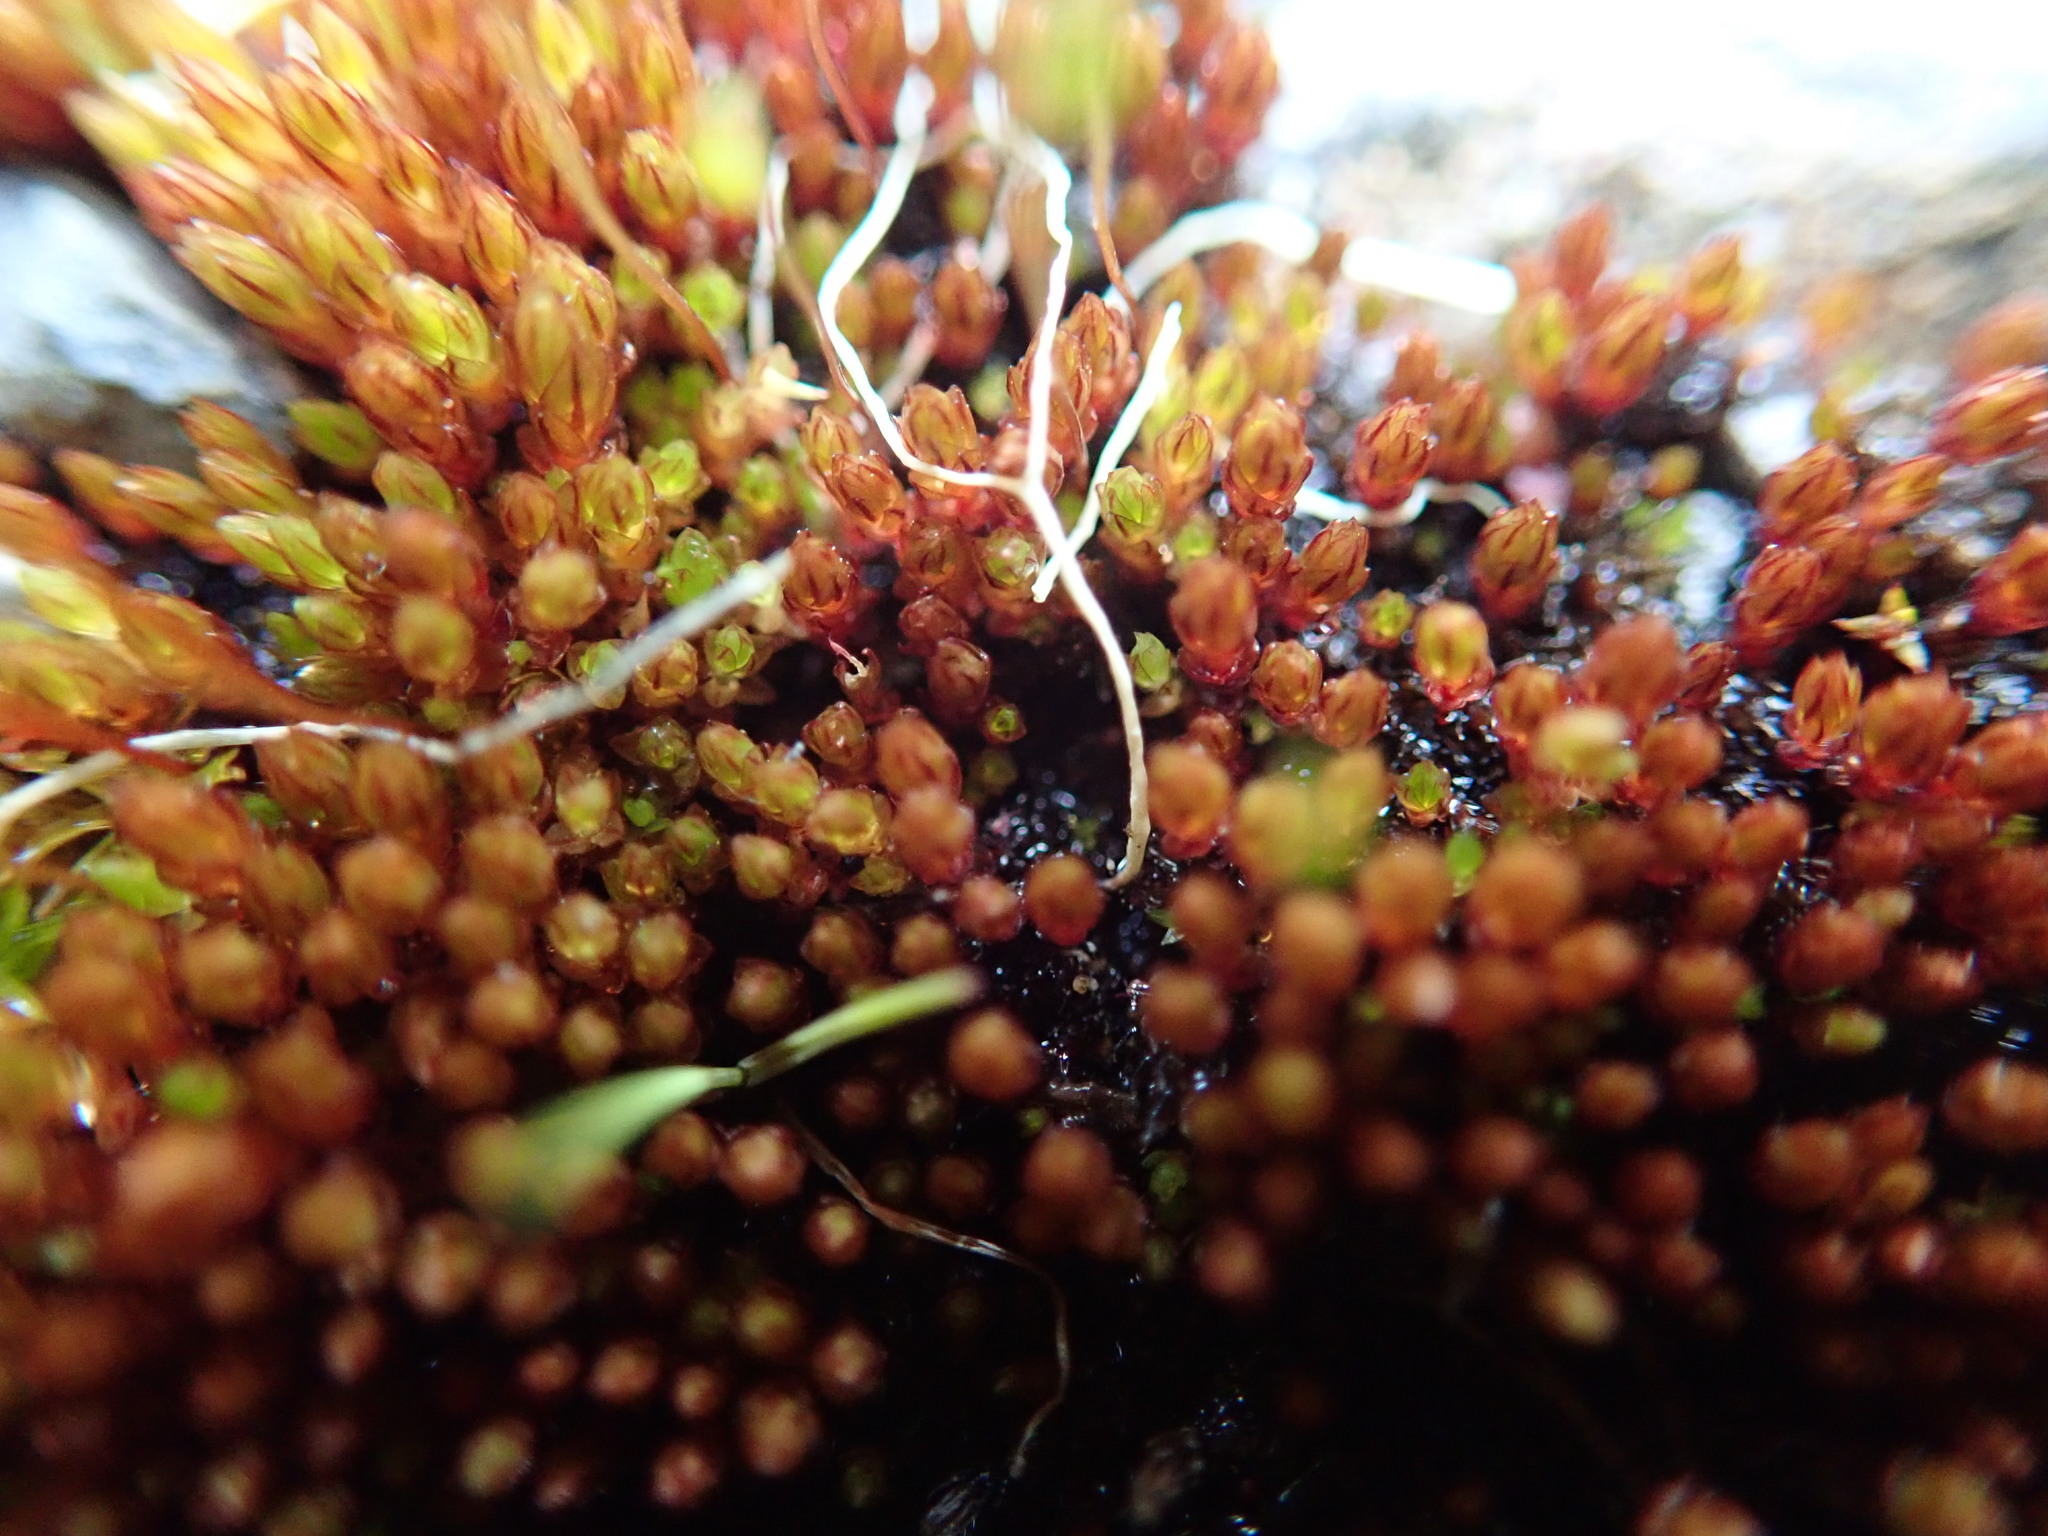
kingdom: Plantae
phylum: Bryophyta
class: Bryopsida
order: Bryales
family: Bryaceae
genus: Imbribryum
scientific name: Imbribryum miniatum
